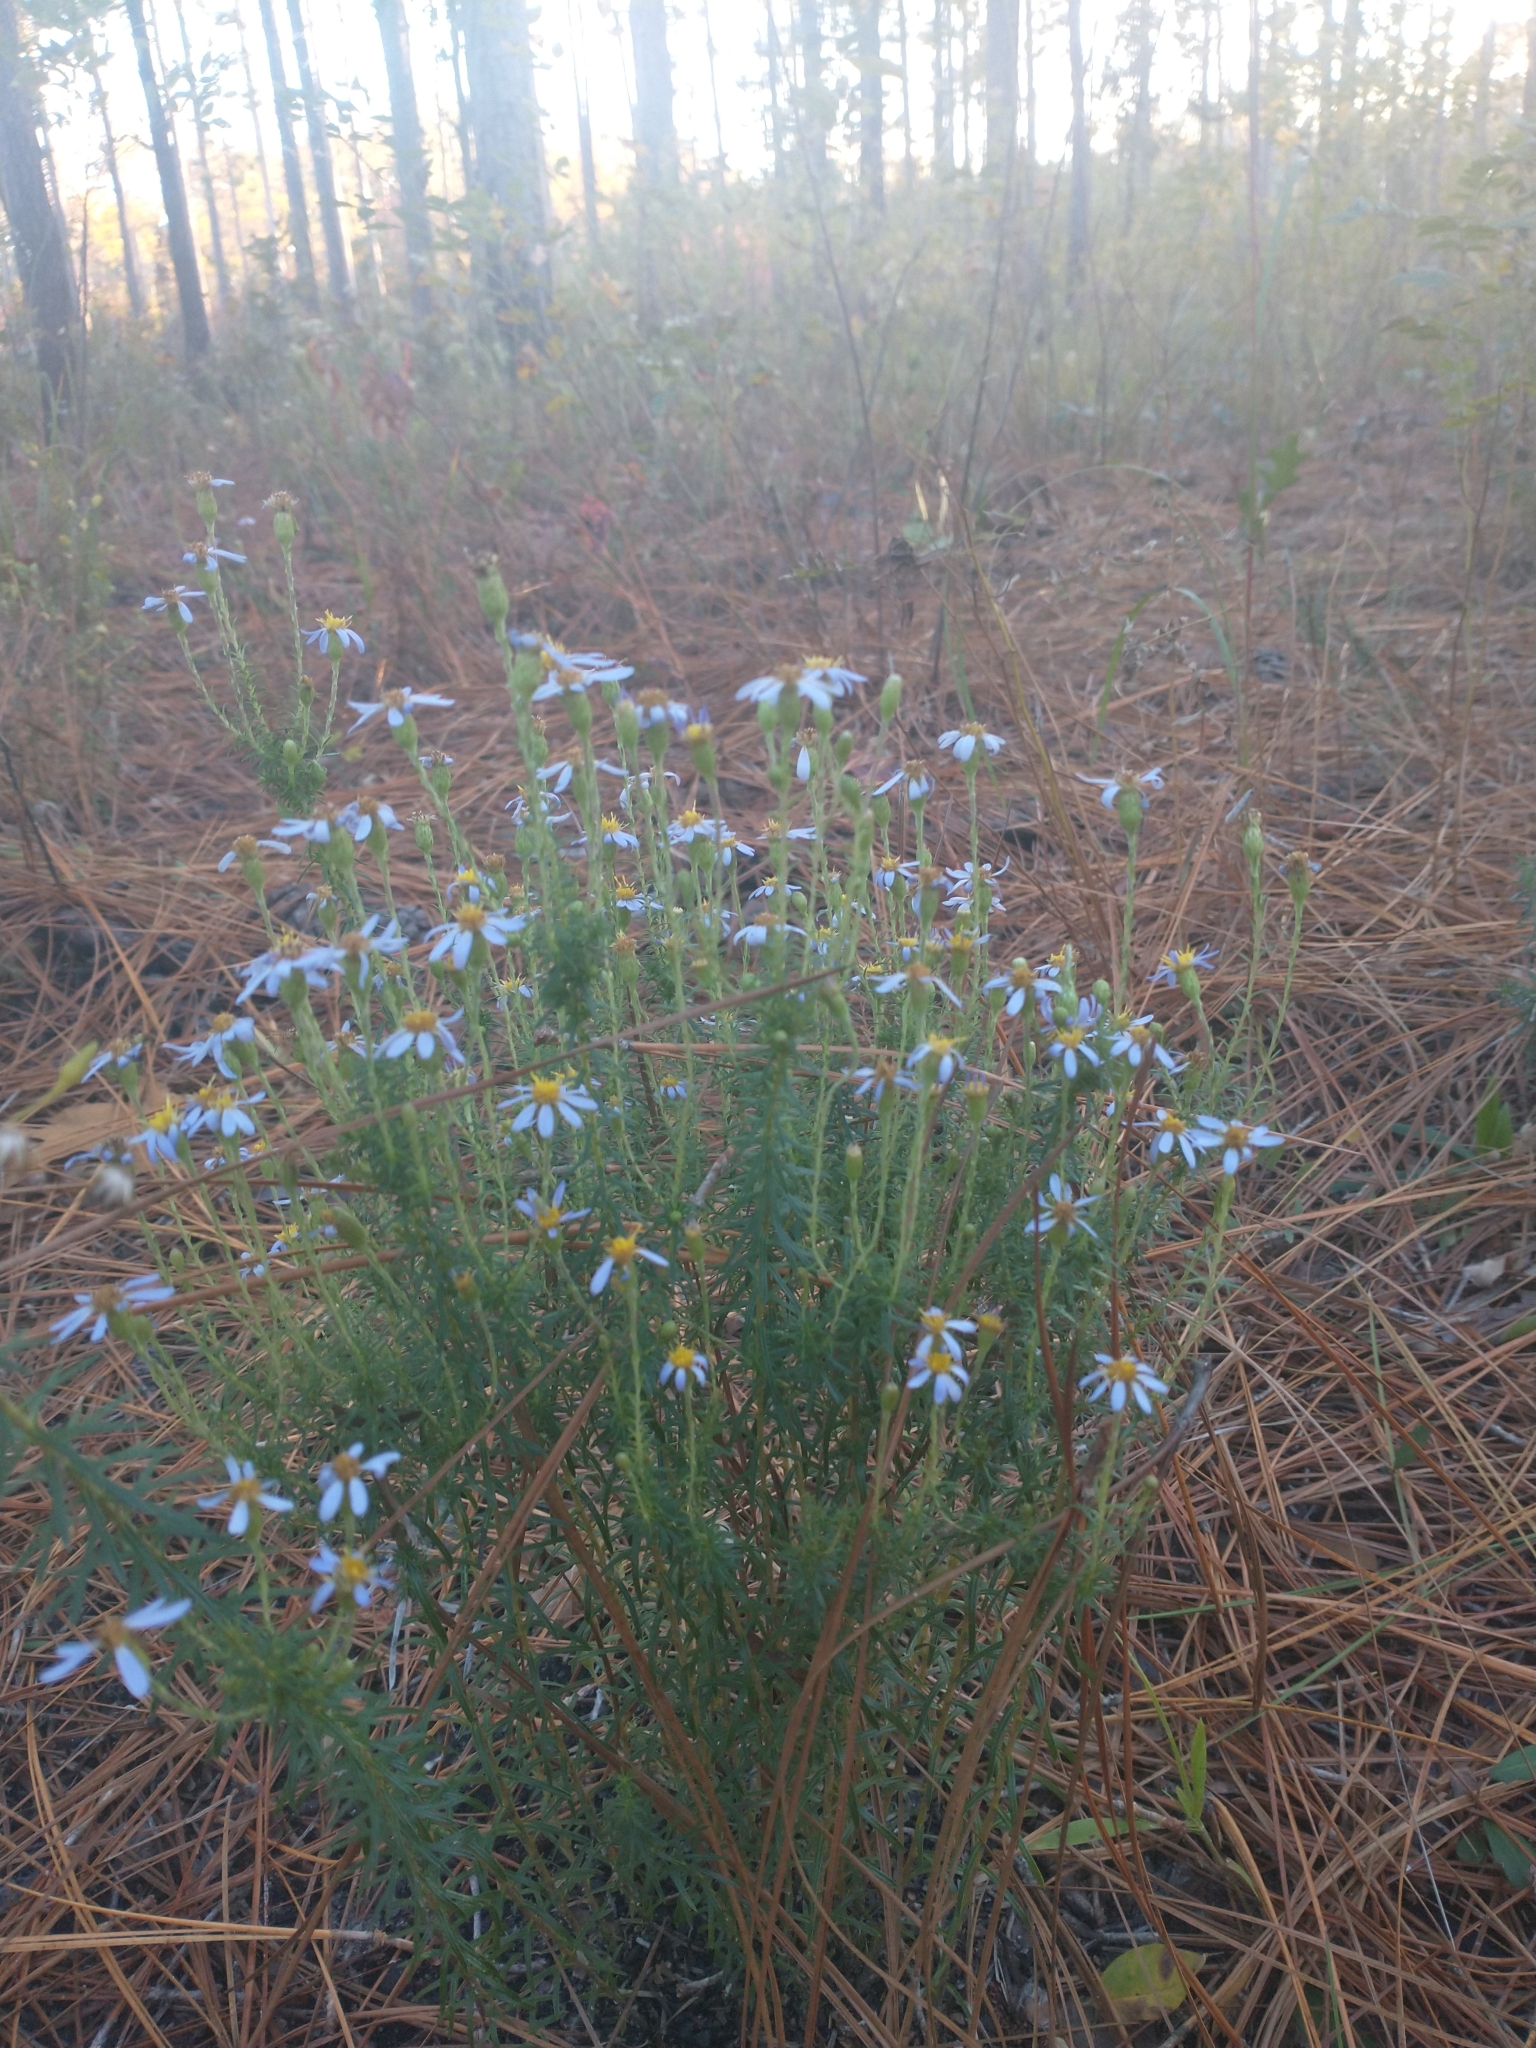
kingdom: Plantae
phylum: Tracheophyta
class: Magnoliopsida
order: Asterales
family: Asteraceae
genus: Ionactis
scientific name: Ionactis linariifolia
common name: Flax-leaf aster
